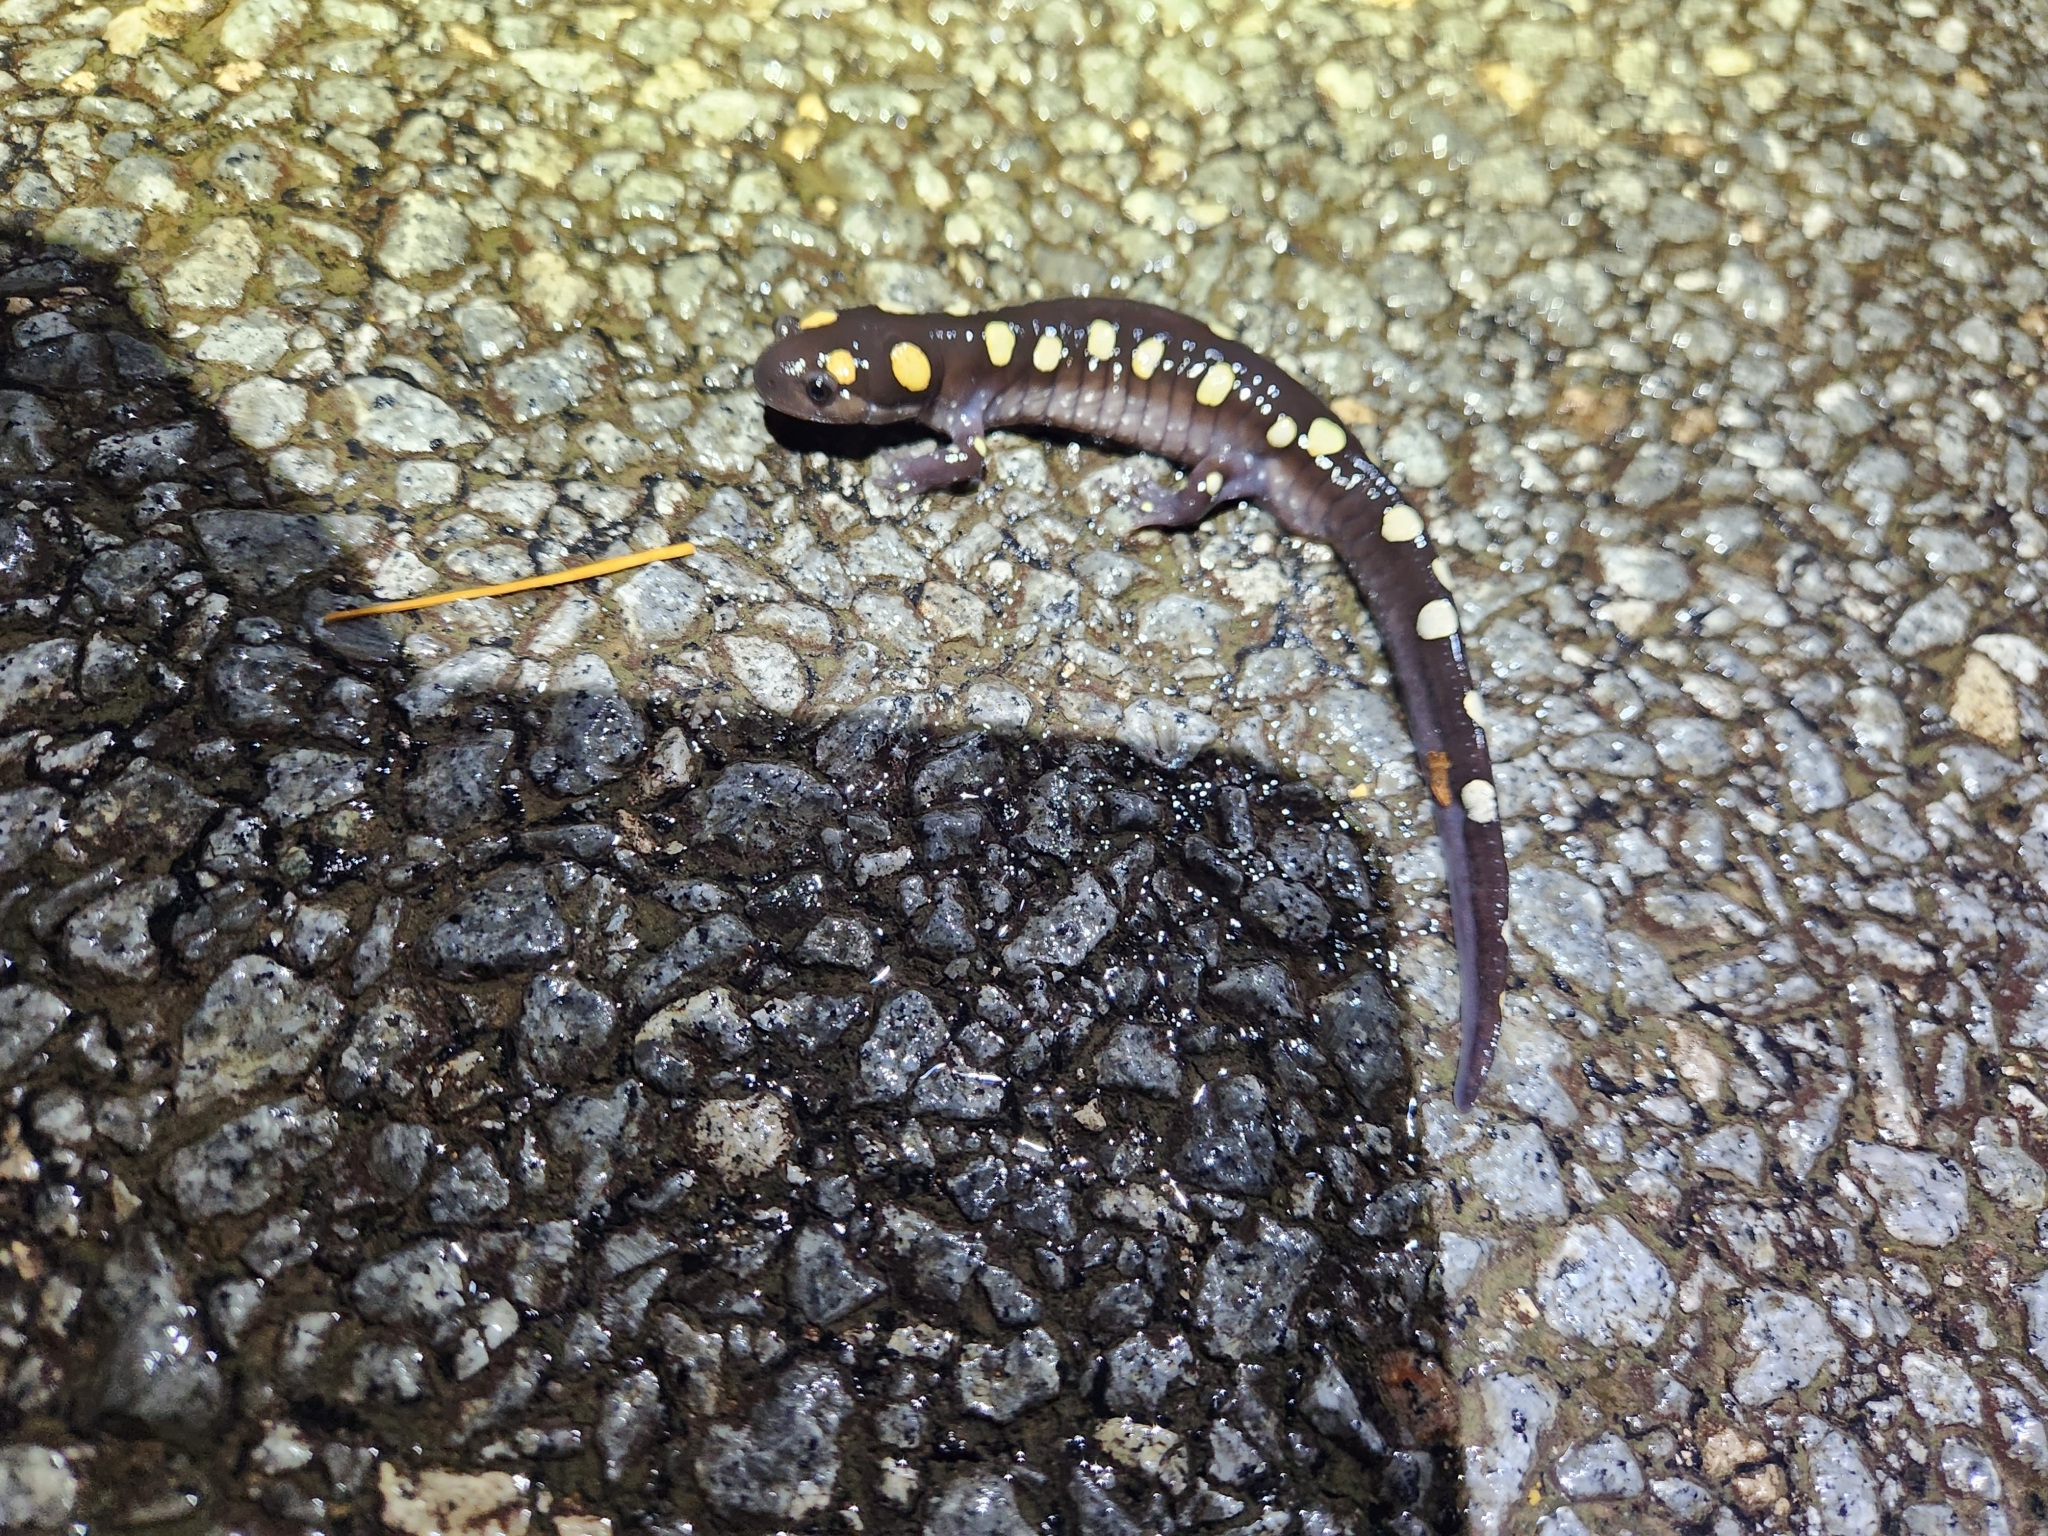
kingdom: Animalia
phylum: Chordata
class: Amphibia
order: Caudata
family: Ambystomatidae
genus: Ambystoma
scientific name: Ambystoma maculatum
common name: Spotted salamander
